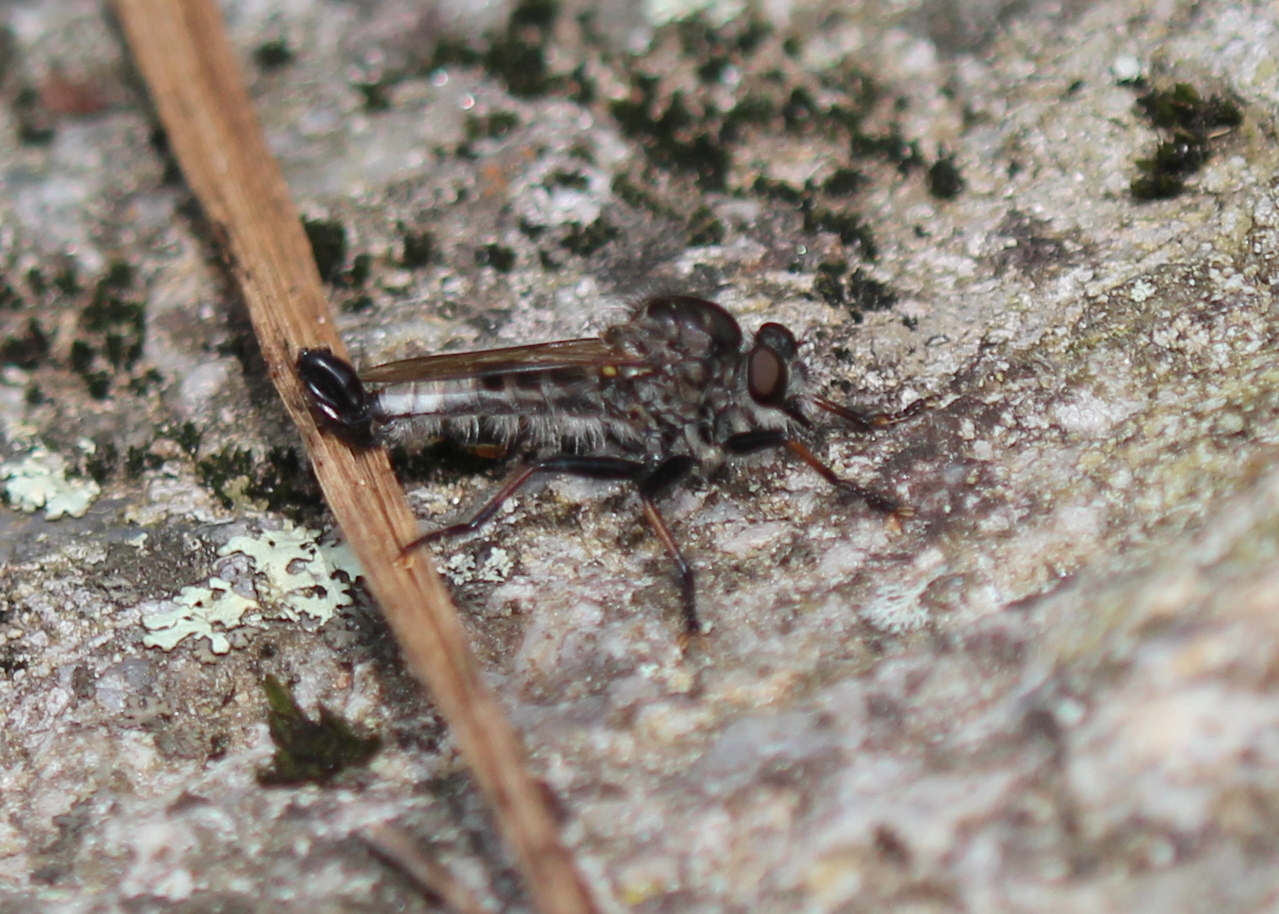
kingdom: Animalia
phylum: Arthropoda
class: Insecta
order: Diptera
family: Asilidae
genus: Efferia
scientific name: Efferia aestuans
